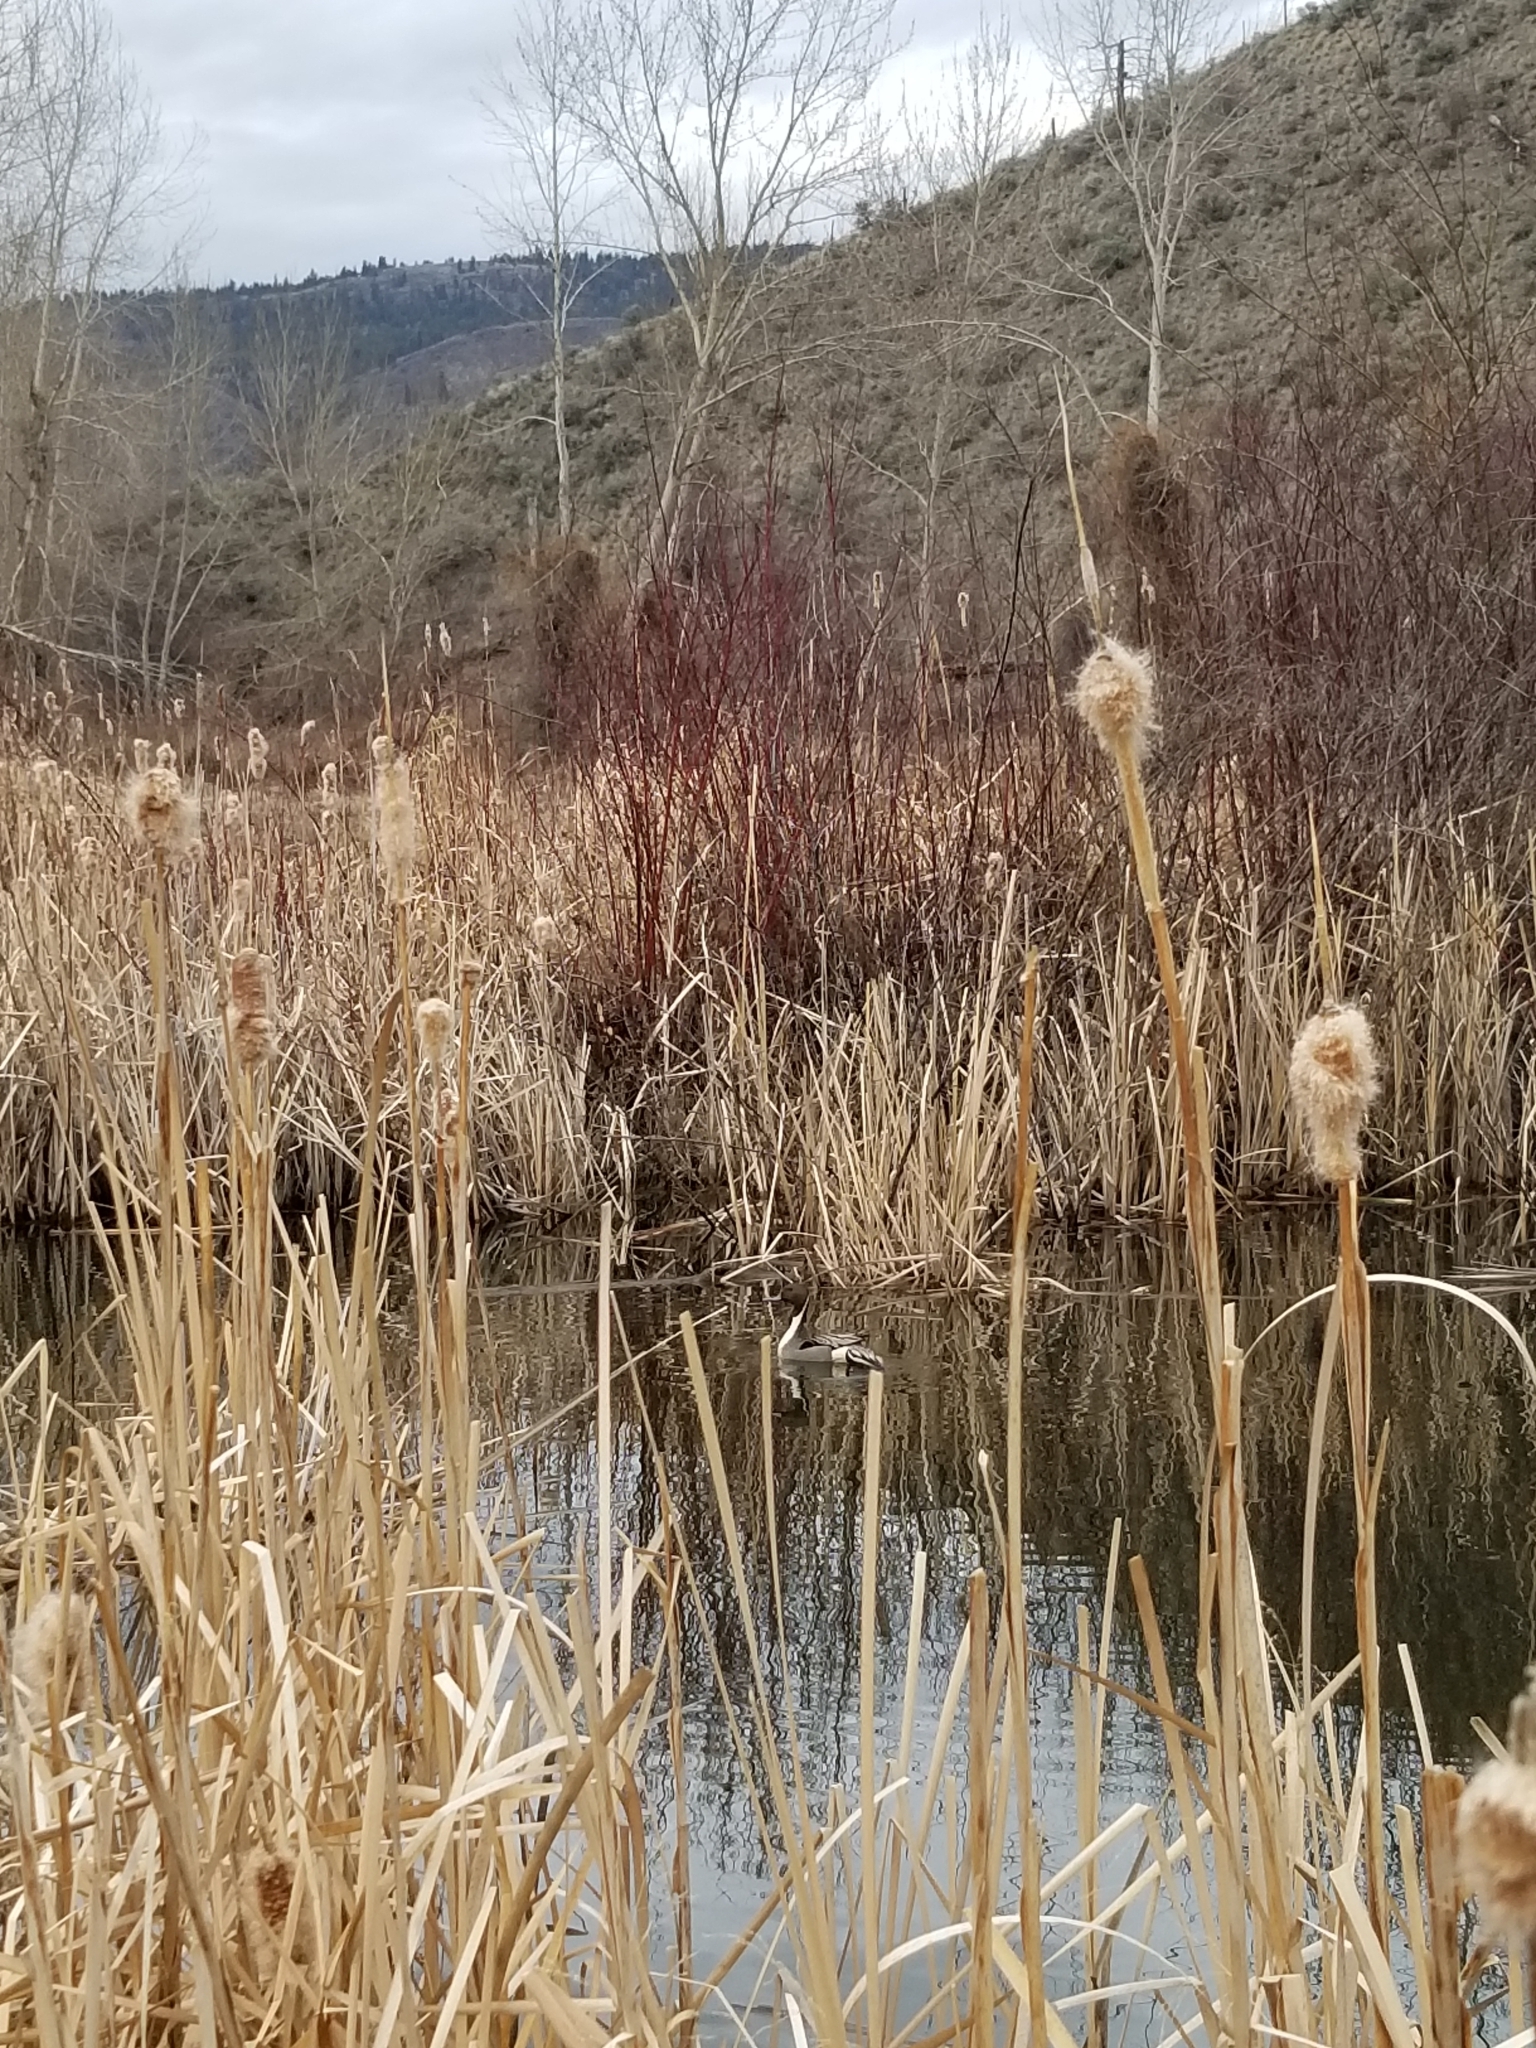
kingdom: Animalia
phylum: Chordata
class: Aves
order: Anseriformes
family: Anatidae
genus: Anas
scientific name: Anas acuta
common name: Northern pintail
